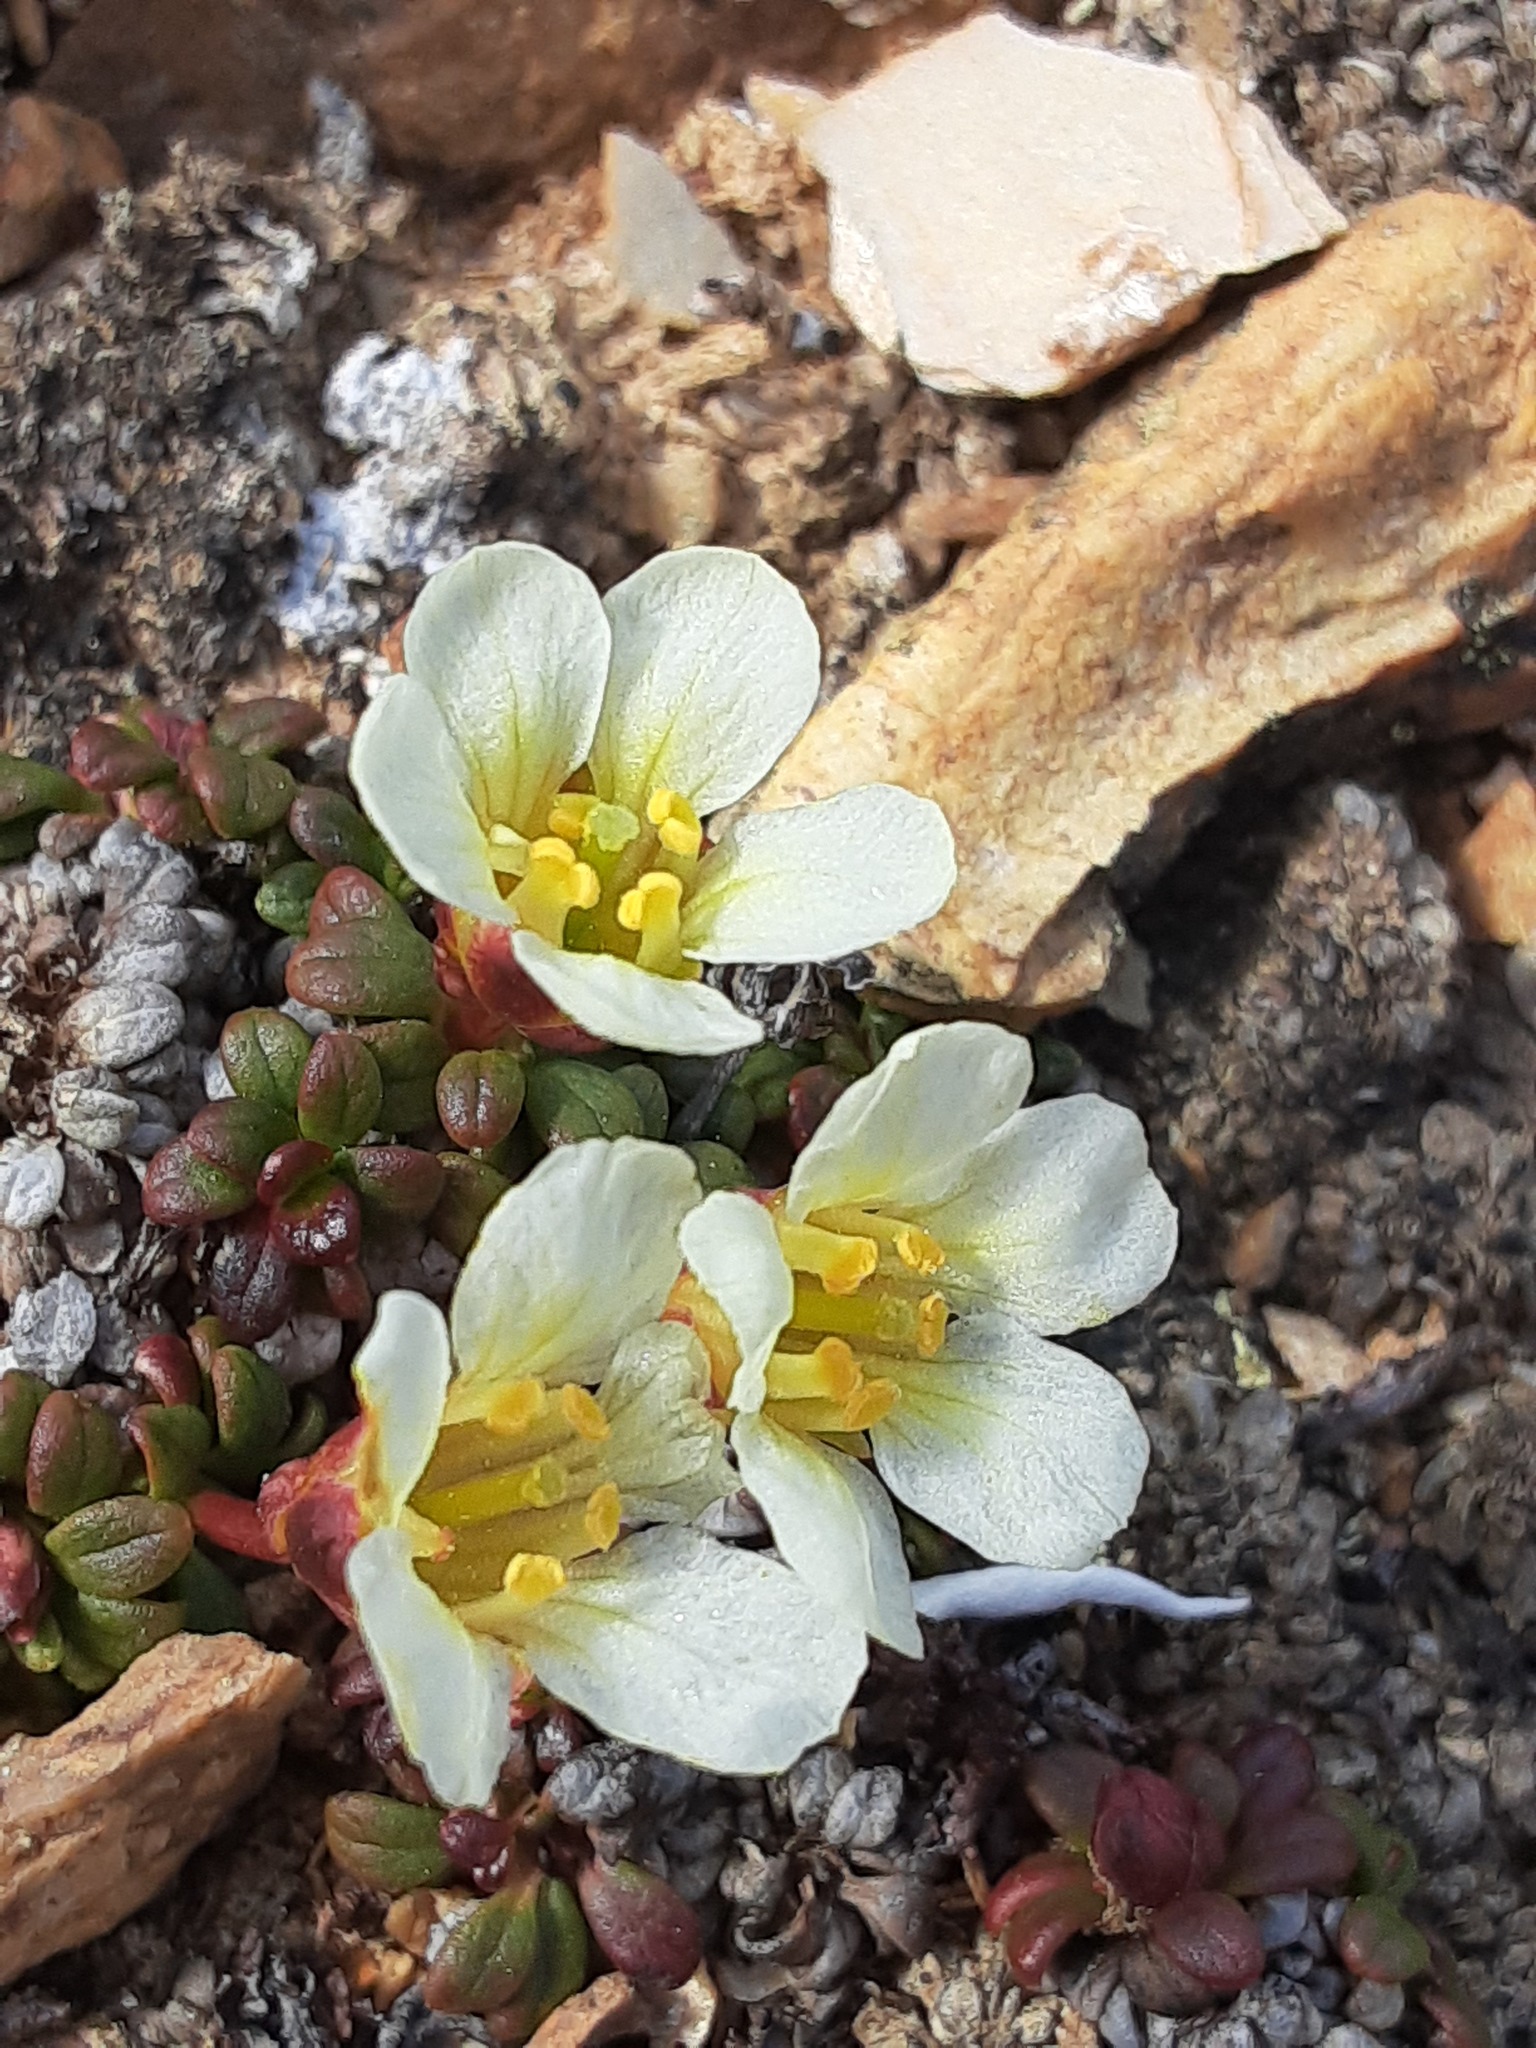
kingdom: Plantae
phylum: Tracheophyta
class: Magnoliopsida
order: Ericales
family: Diapensiaceae
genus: Diapensia
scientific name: Diapensia obovata
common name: Alaska diapensia
